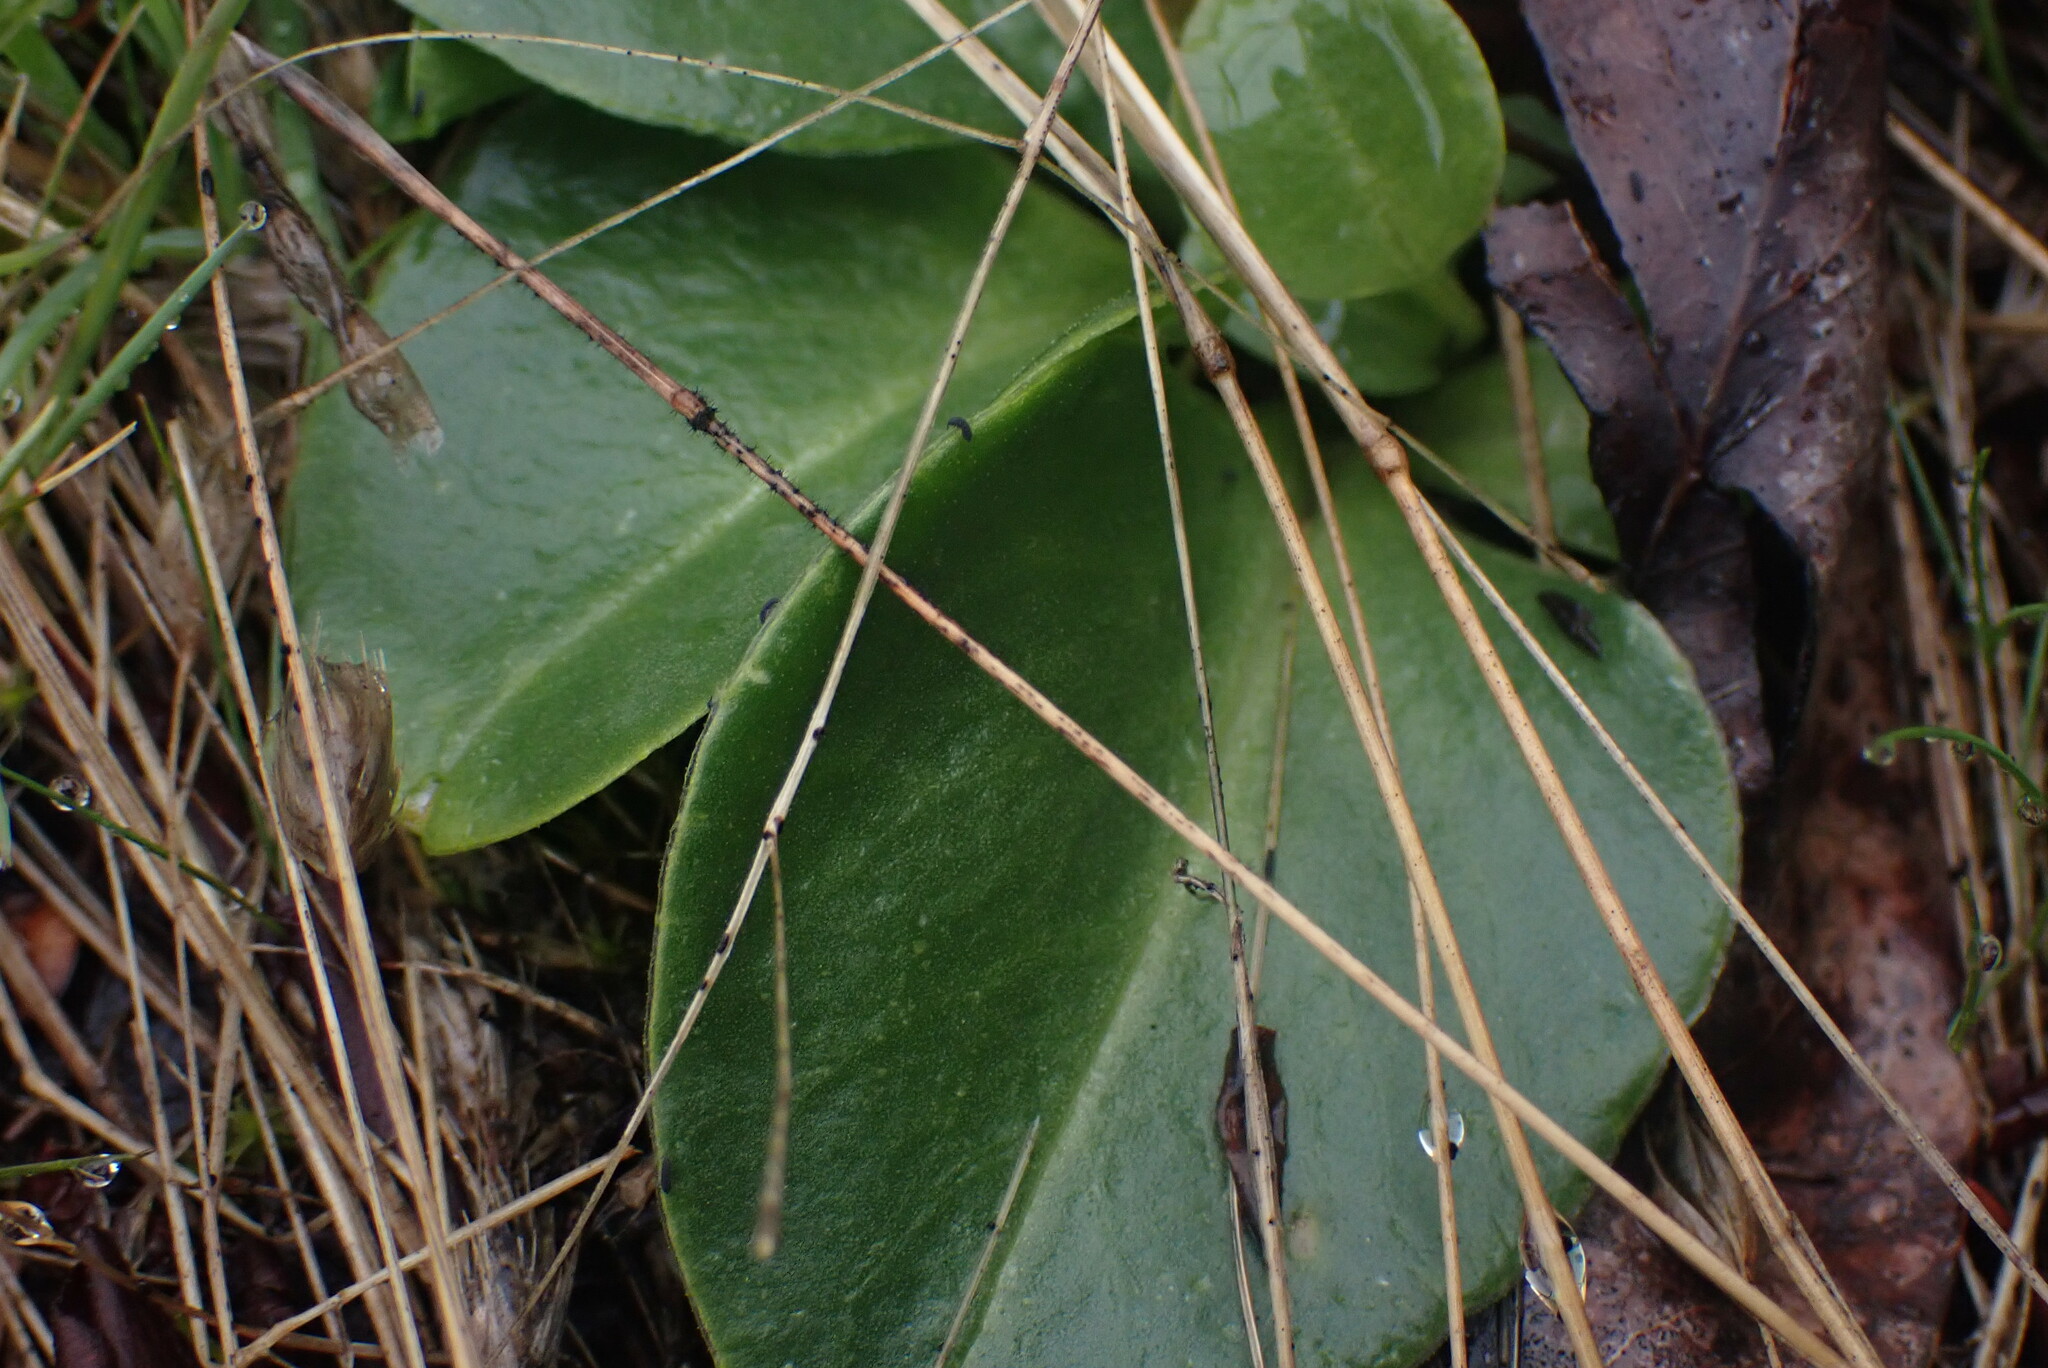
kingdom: Plantae
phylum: Tracheophyta
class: Magnoliopsida
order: Ericales
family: Primulaceae
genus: Dodecatheon
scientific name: Dodecatheon hendersonii
